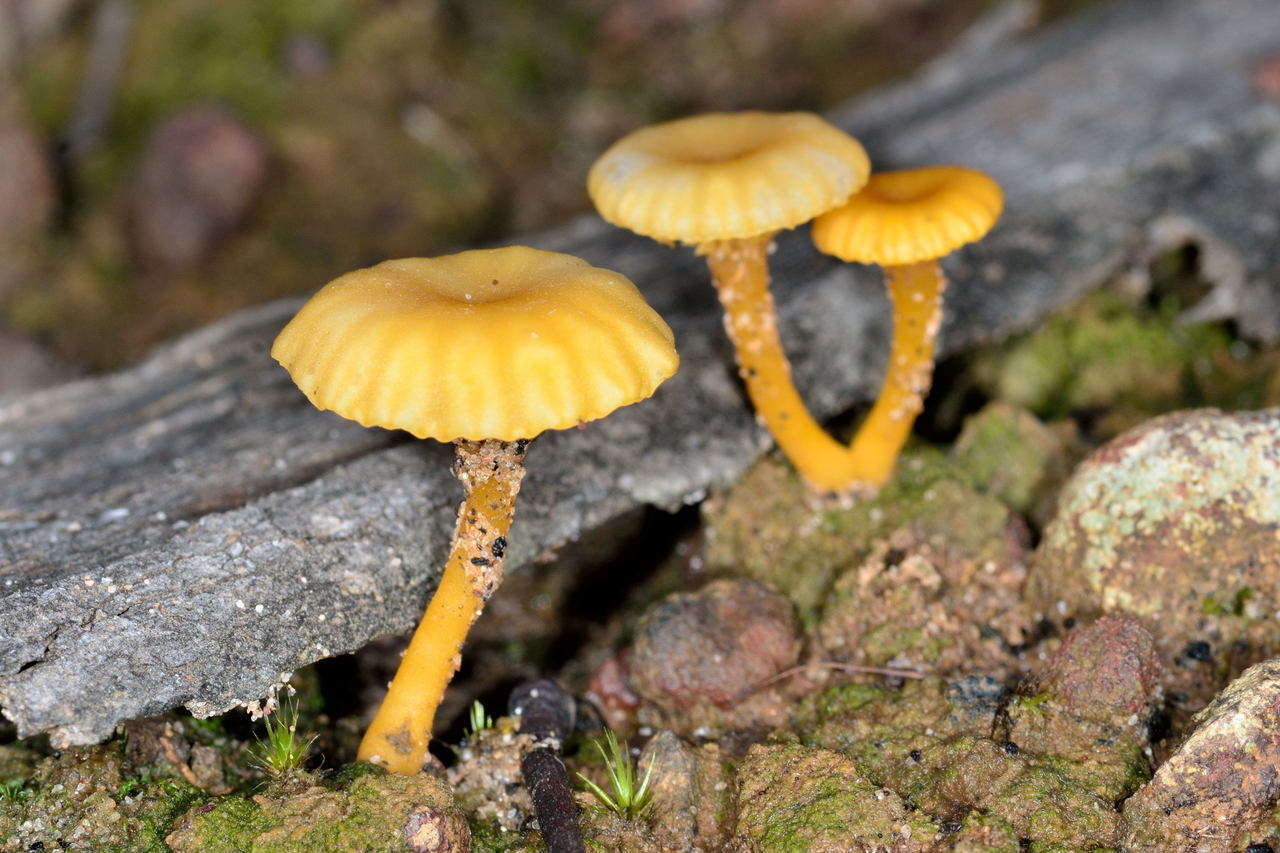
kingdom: Fungi
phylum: Basidiomycota
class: Agaricomycetes
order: Agaricales
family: Hygrophoraceae
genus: Lichenomphalia
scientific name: Lichenomphalia chromacea
